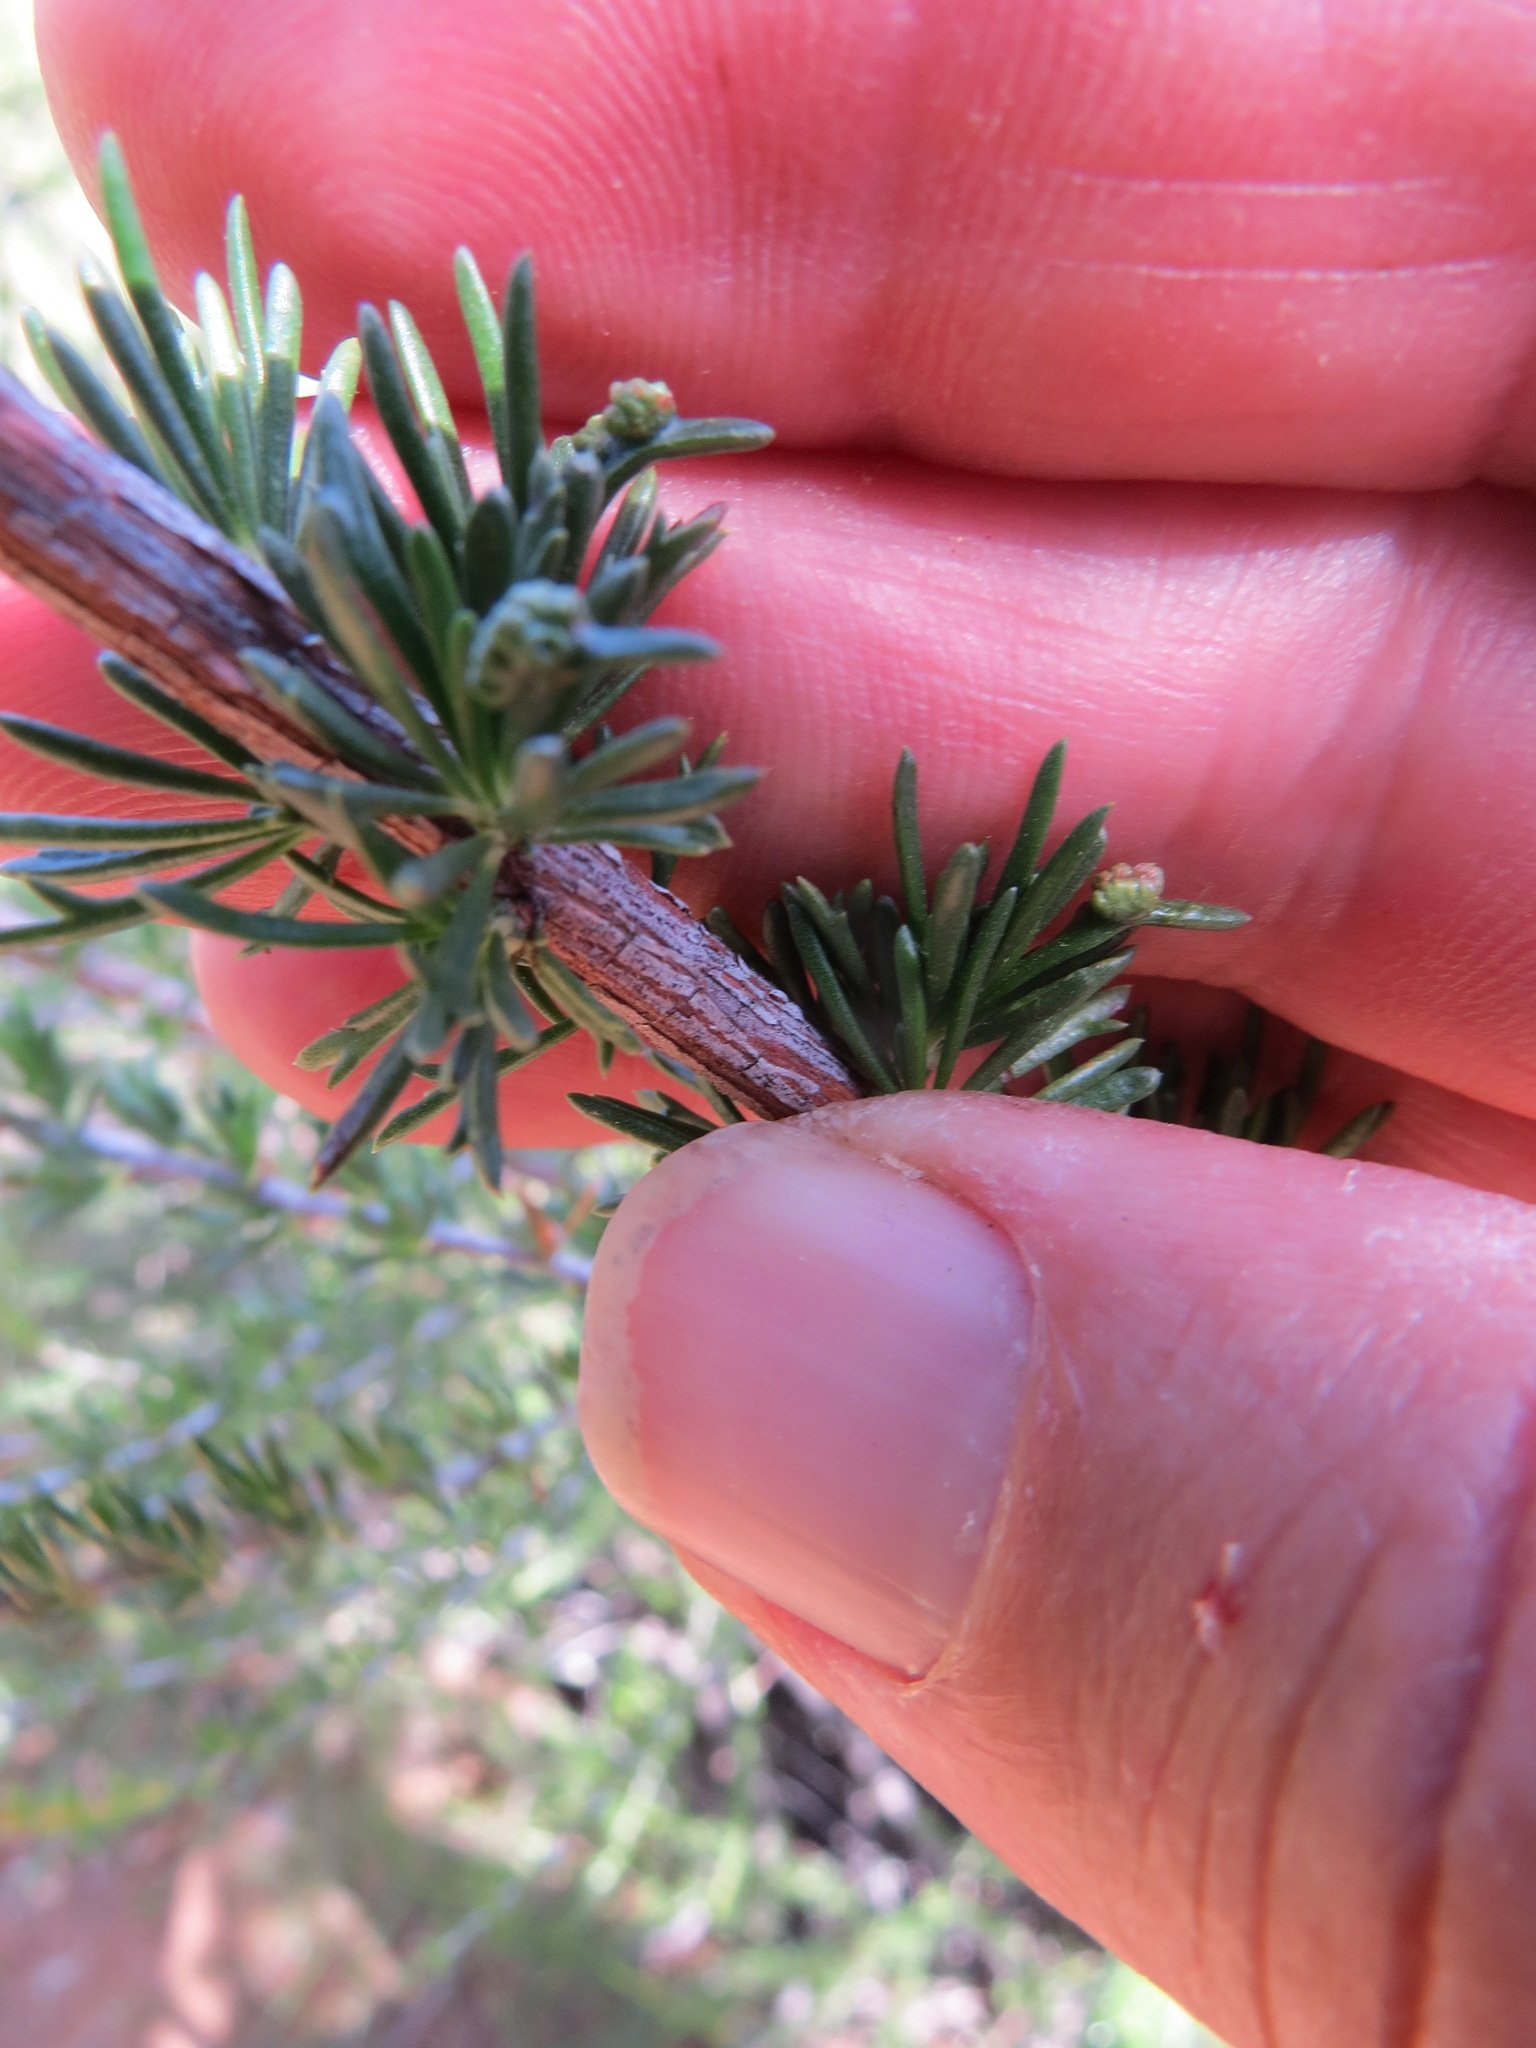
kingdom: Animalia
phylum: Arthropoda
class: Arachnida
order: Trombidiformes
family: Eriophyidae
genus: Eriophyes
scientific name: Eriophyes
